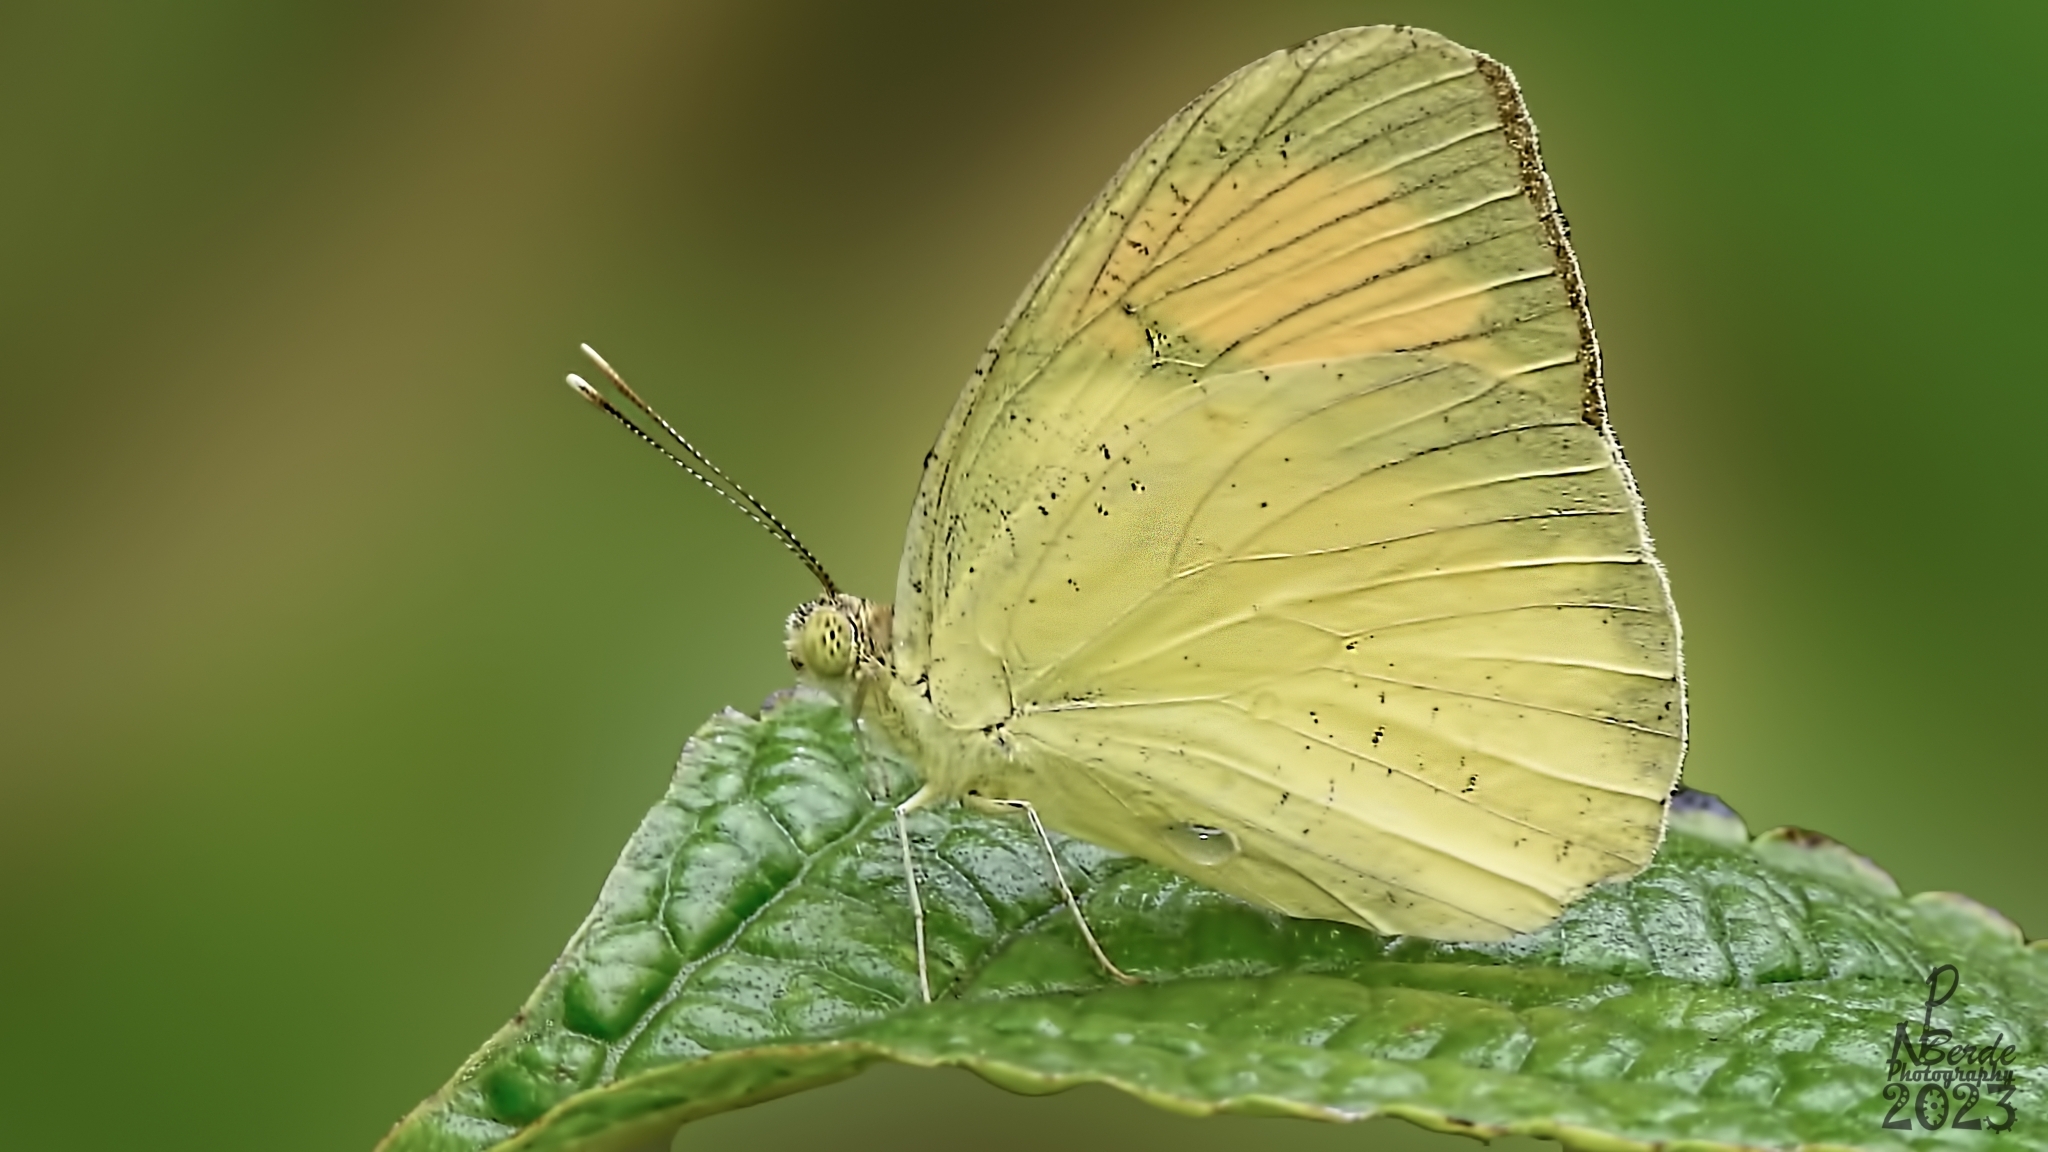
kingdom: Animalia
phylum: Arthropoda
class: Insecta
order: Lepidoptera
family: Pieridae
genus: Ixias
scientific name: Ixias pyrene
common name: Yellow orange tip
